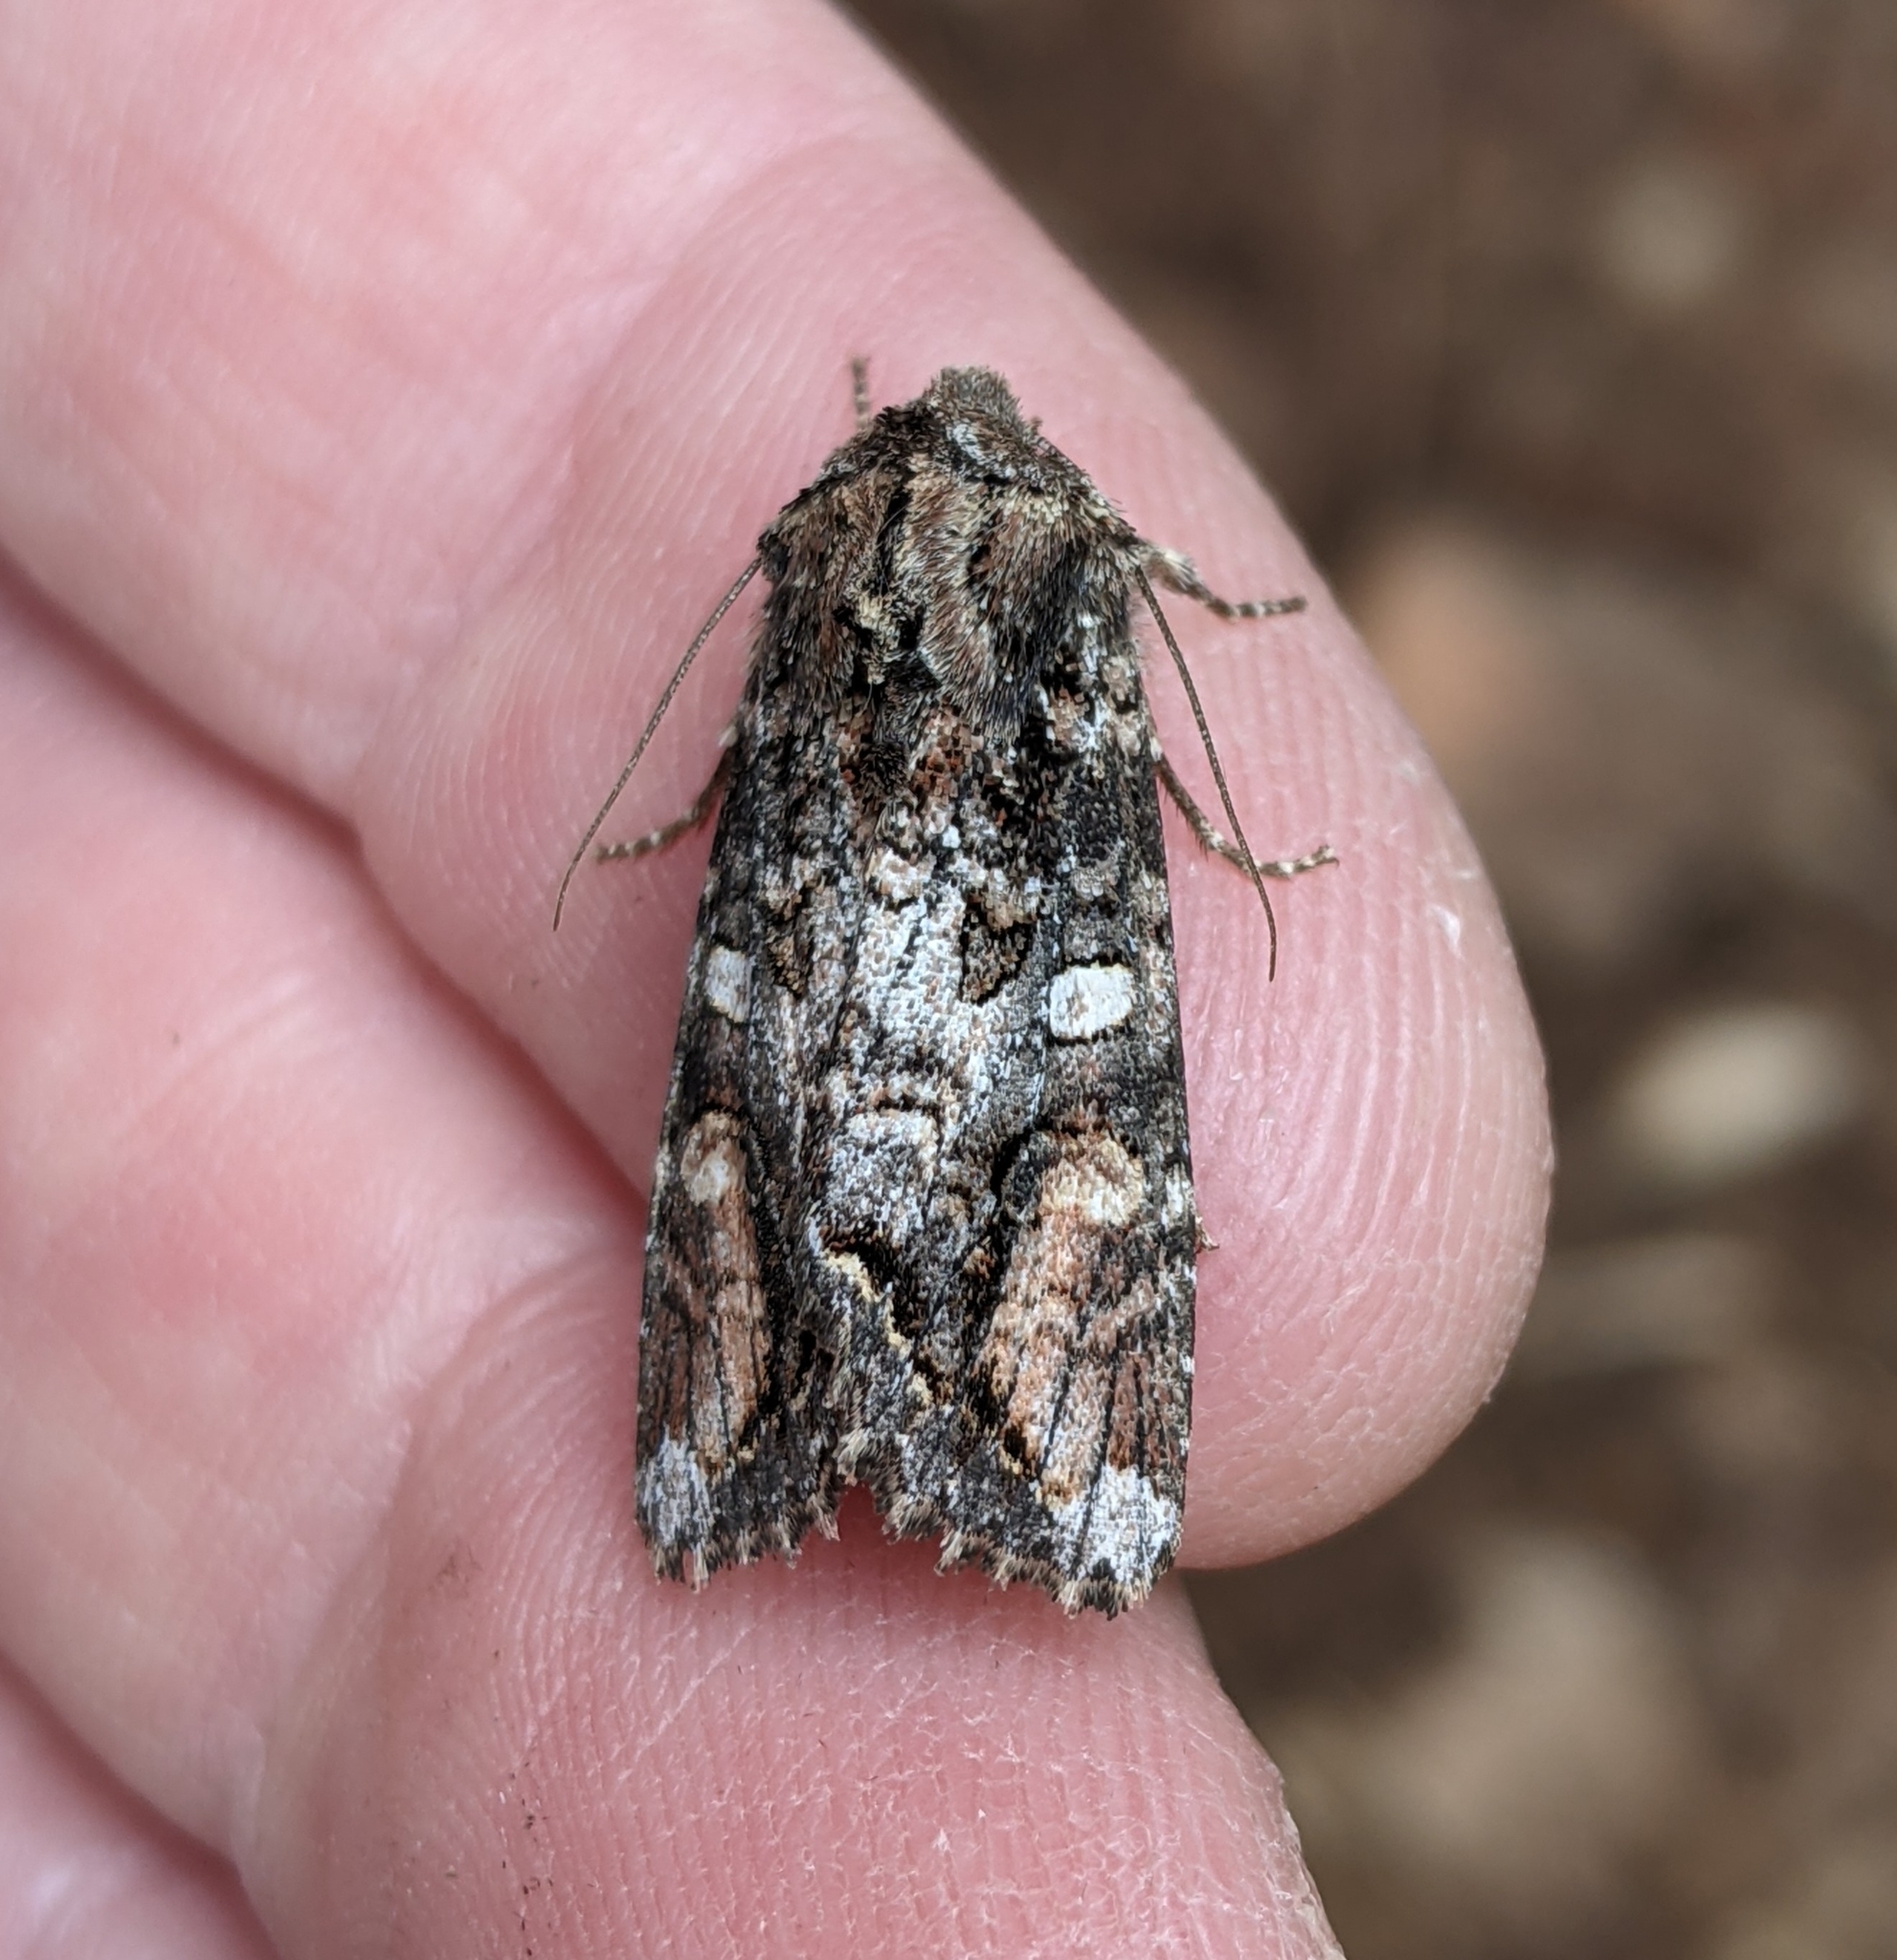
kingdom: Animalia
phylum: Arthropoda
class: Insecta
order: Lepidoptera
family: Noctuidae
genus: Egira
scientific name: Egira perlubens
